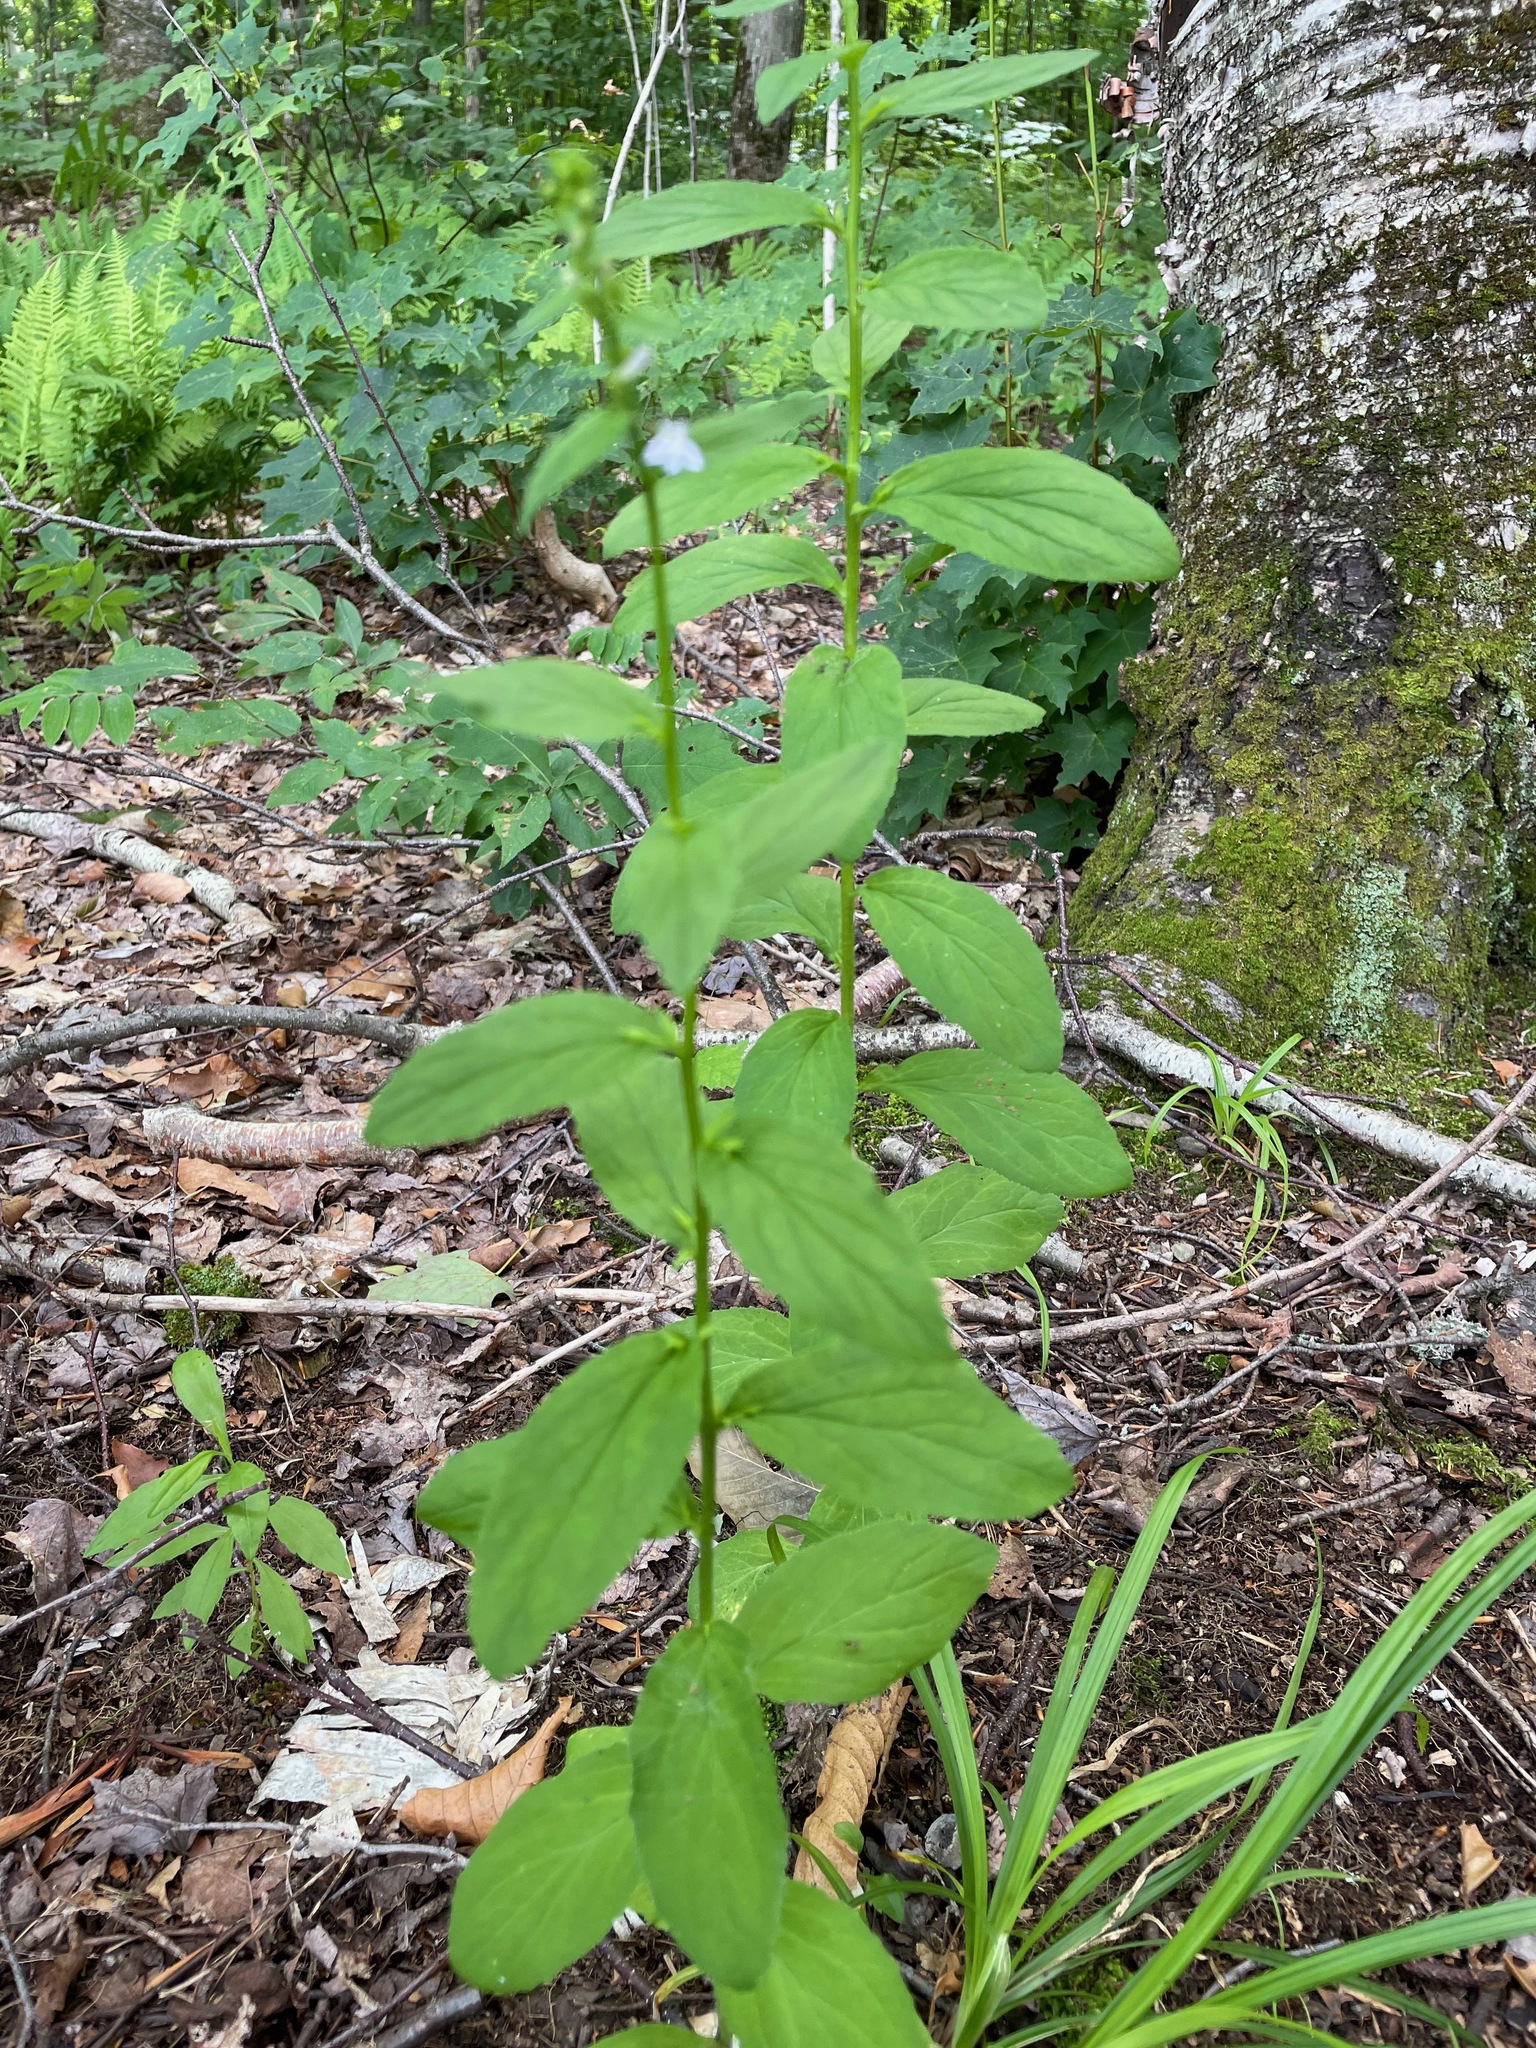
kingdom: Plantae
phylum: Tracheophyta
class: Magnoliopsida
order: Asterales
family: Campanulaceae
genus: Lobelia
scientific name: Lobelia inflata
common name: Indian tobacco
